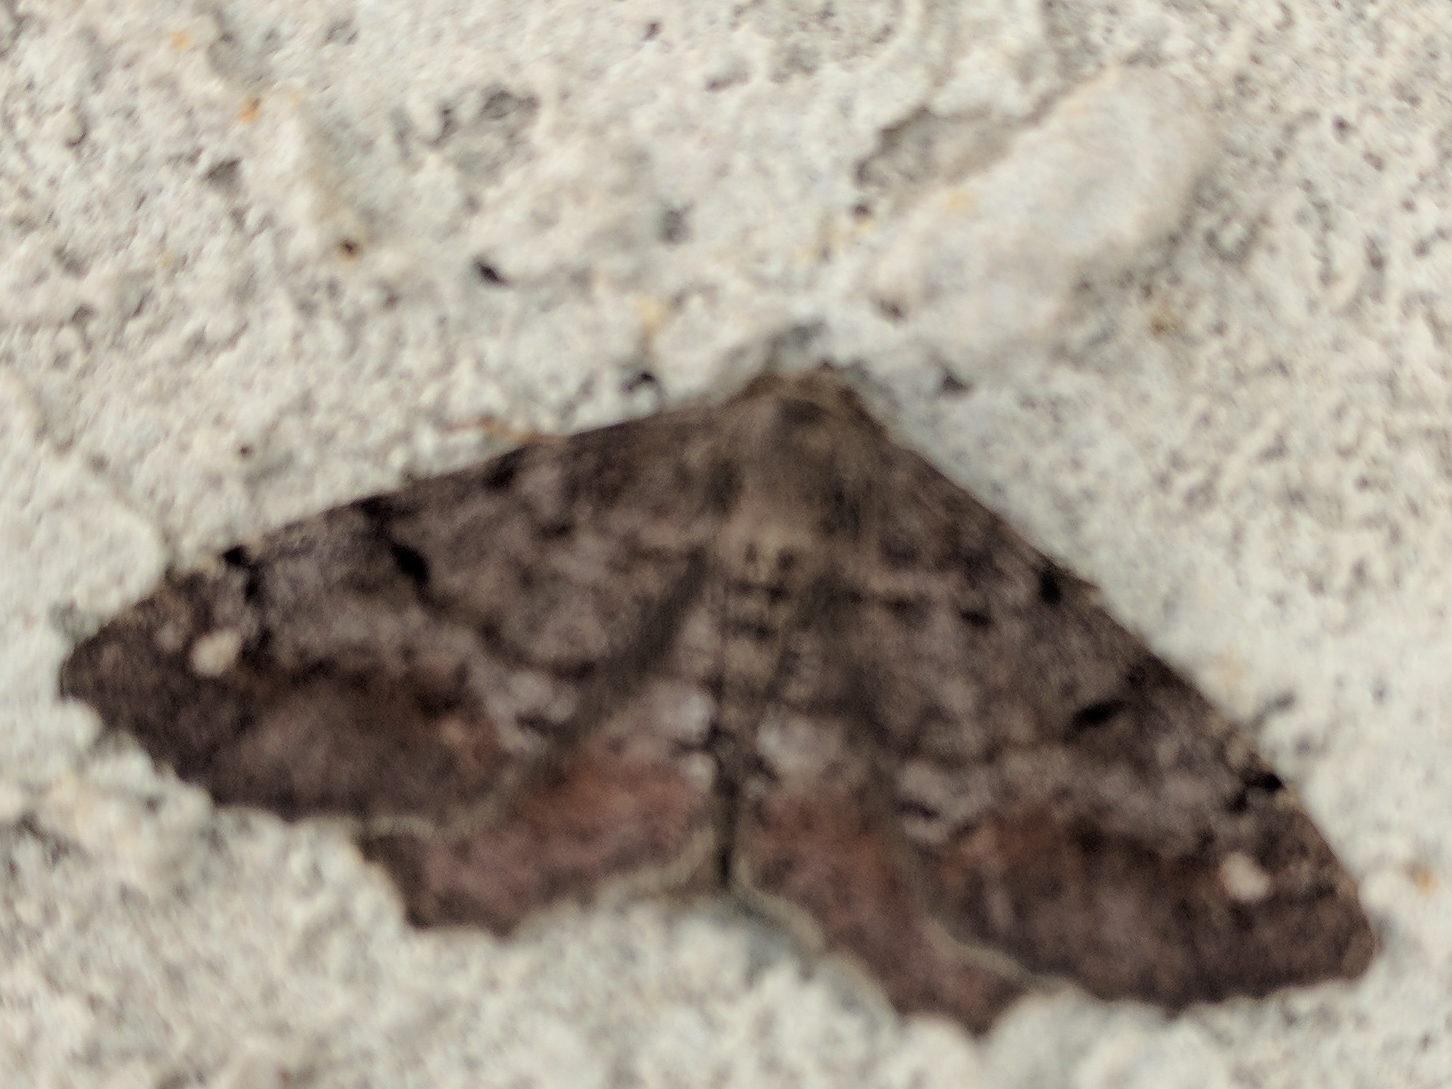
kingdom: Animalia
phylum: Arthropoda
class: Insecta
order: Lepidoptera
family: Geometridae
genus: Hypagyrtis
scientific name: Hypagyrtis unipunctata
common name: One-spotted variant
